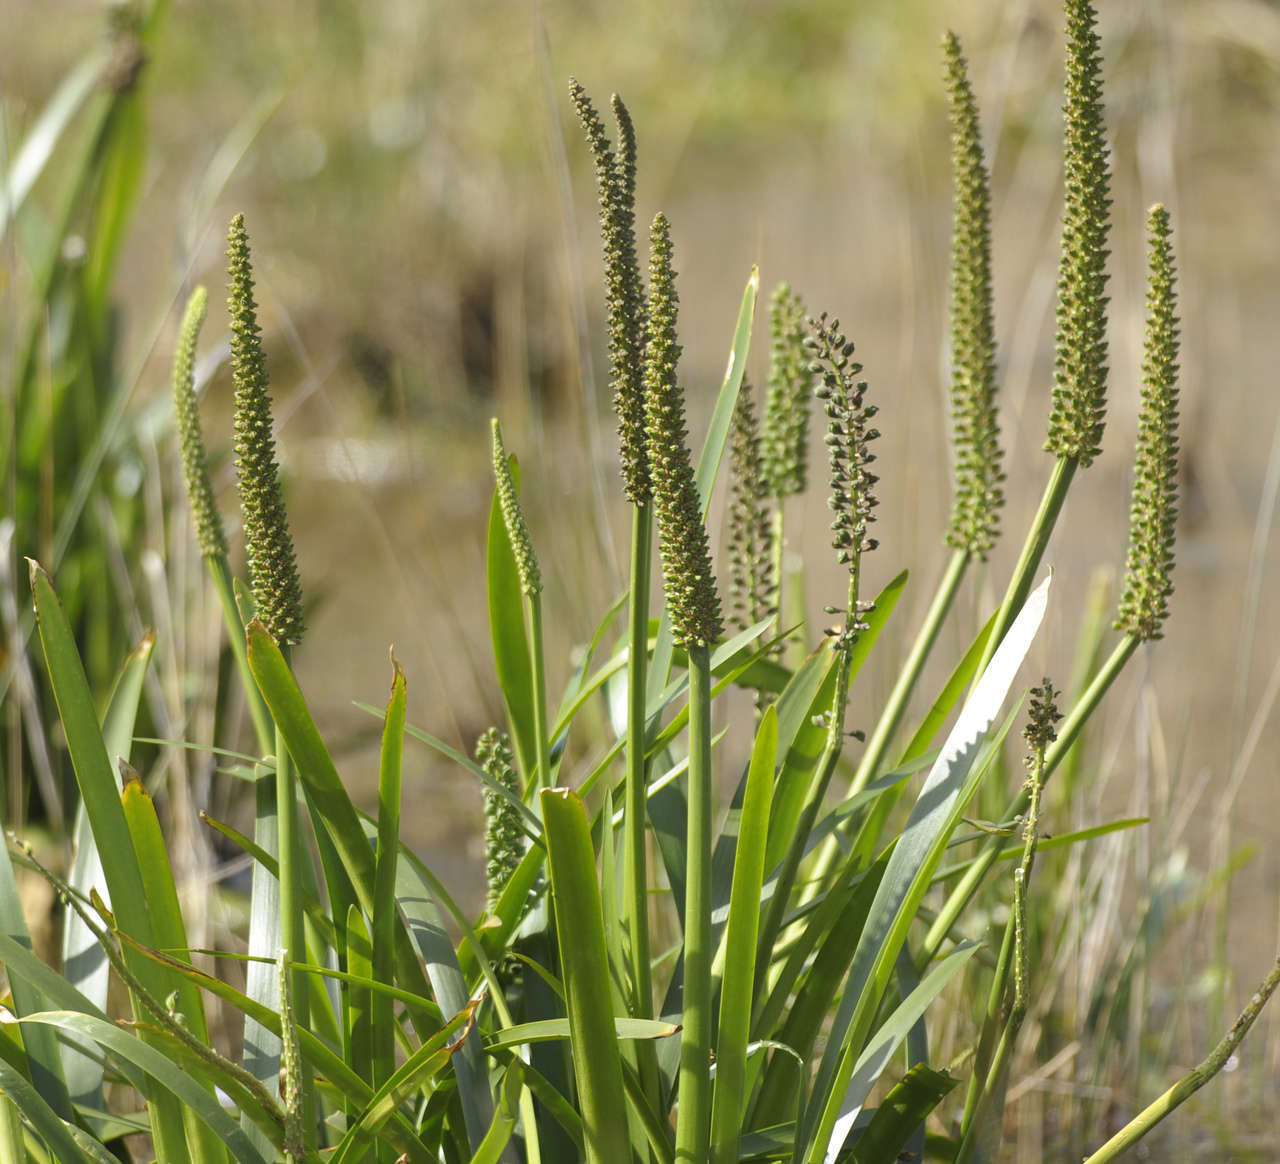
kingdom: Plantae
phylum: Tracheophyta
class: Liliopsida
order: Alismatales
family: Juncaginaceae
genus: Cycnogeton
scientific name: Cycnogeton procerum
